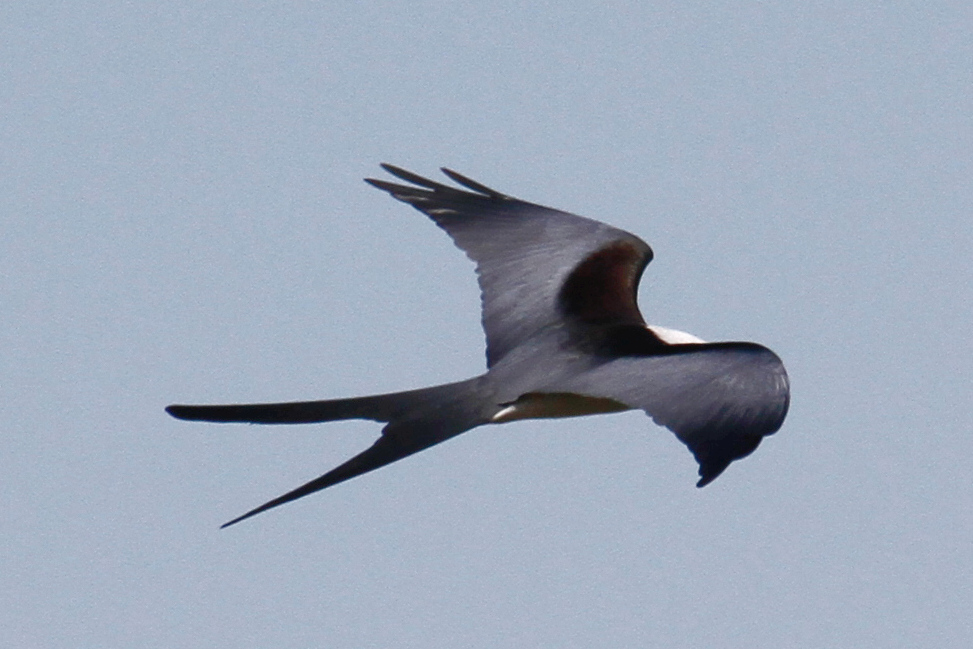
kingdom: Animalia
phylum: Chordata
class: Aves
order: Accipitriformes
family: Accipitridae
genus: Elanoides
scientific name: Elanoides forficatus
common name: Swallow-tailed kite
